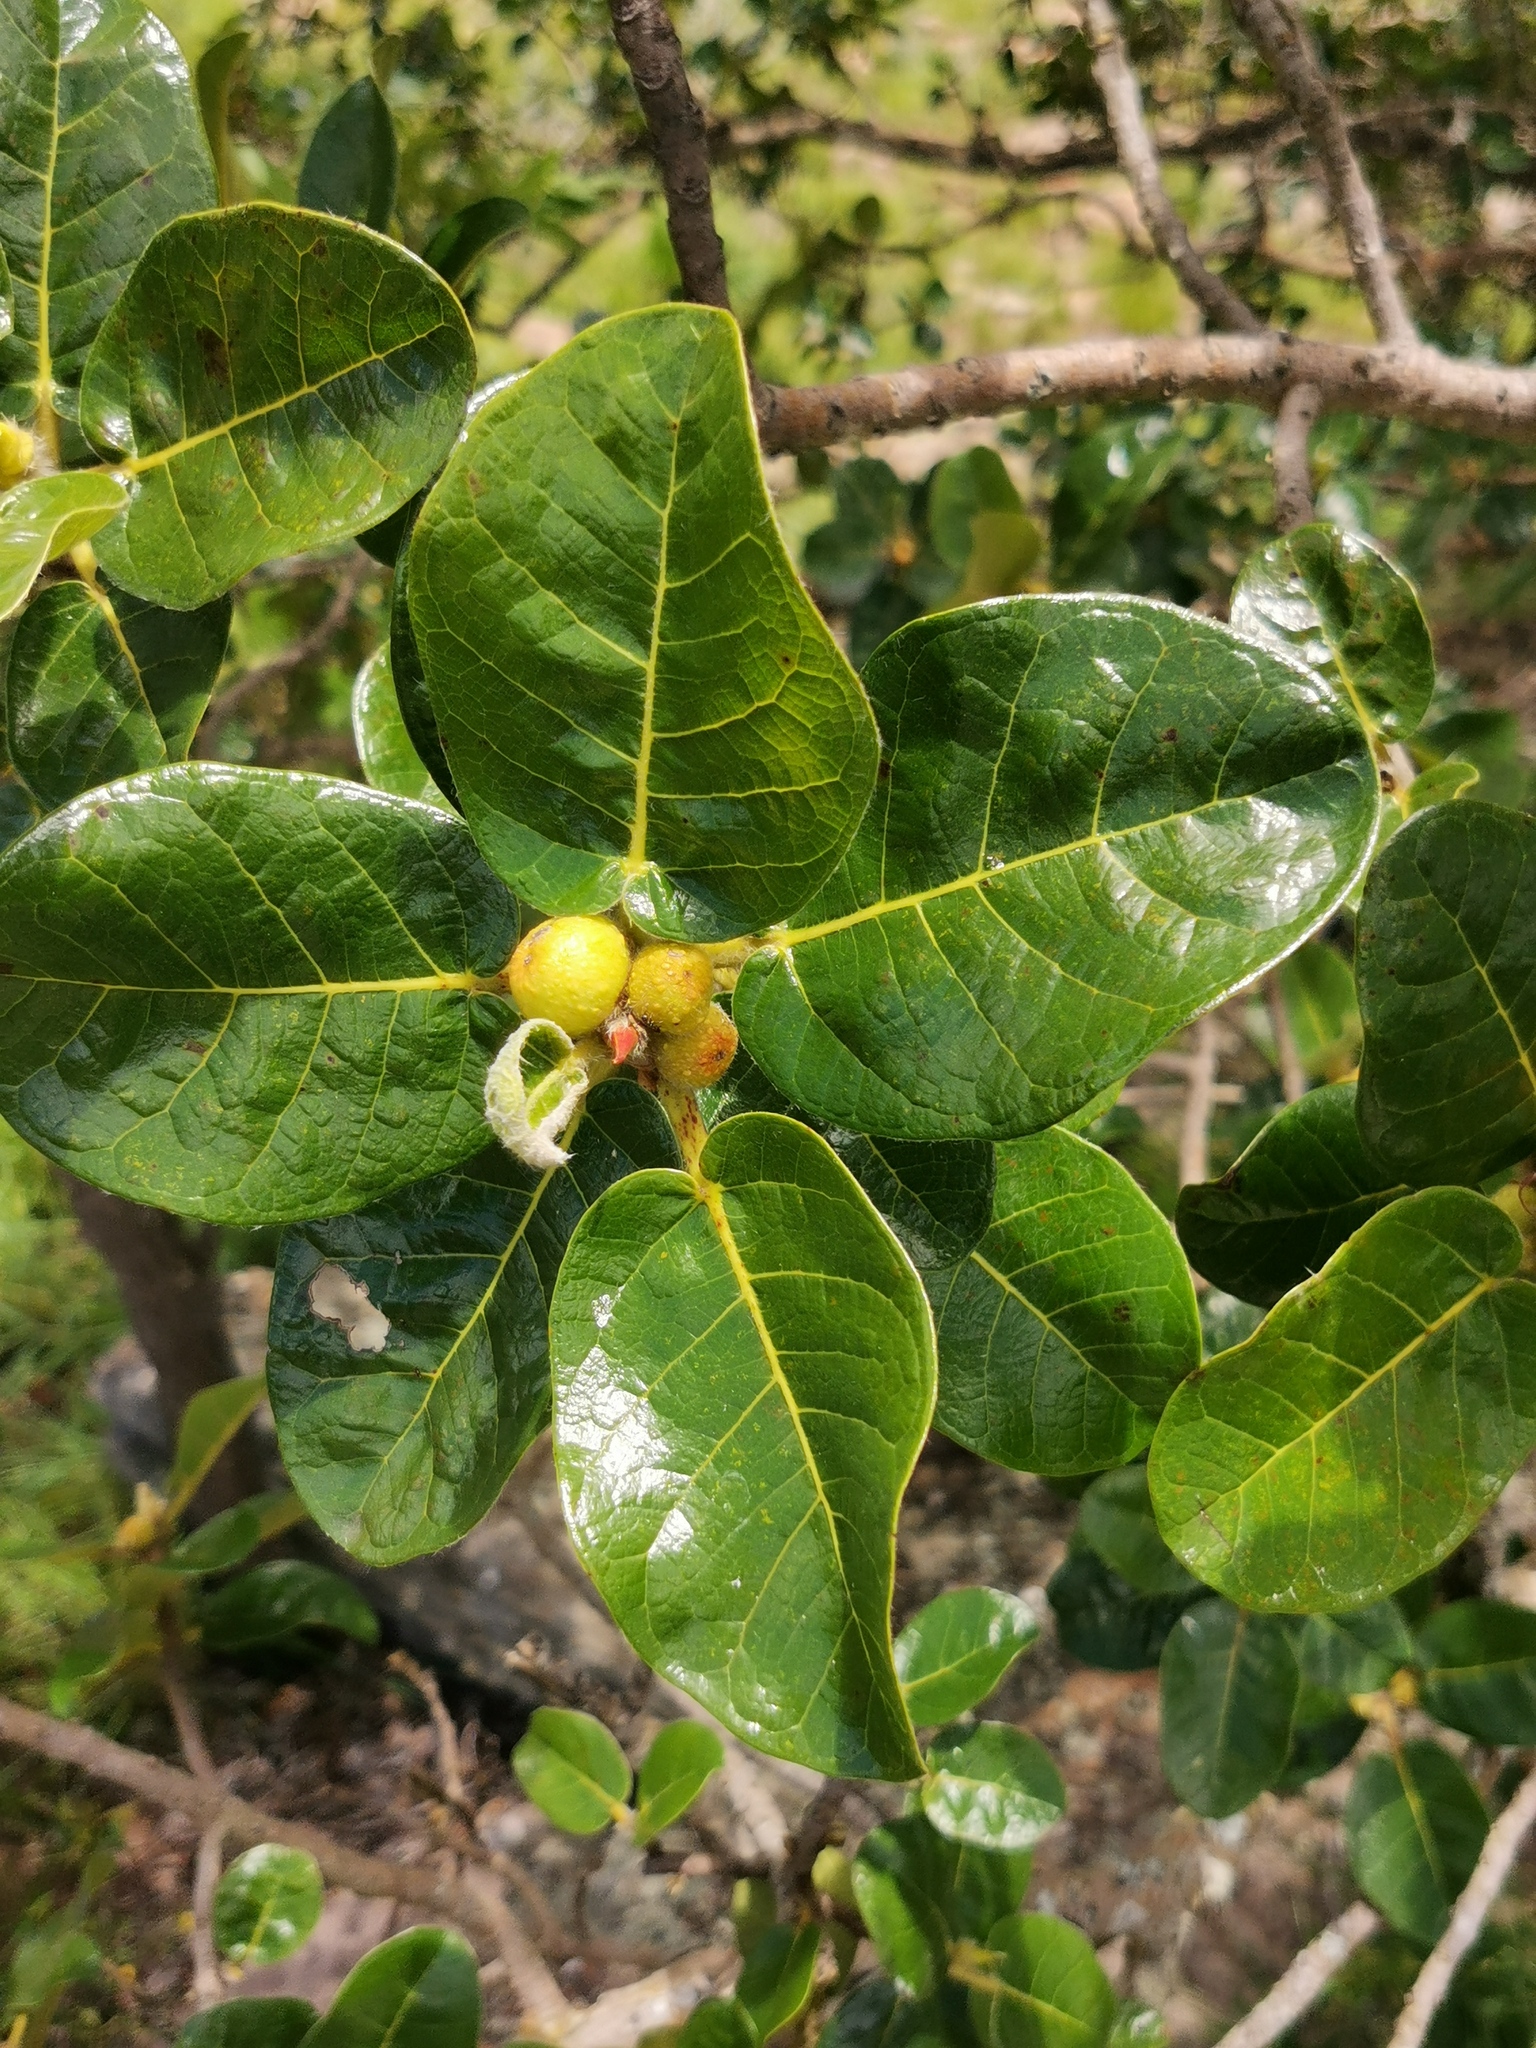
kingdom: Plantae
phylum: Tracheophyta
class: Magnoliopsida
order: Rosales
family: Moraceae
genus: Ficus
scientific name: Ficus glumosa
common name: Hairy rock fig
